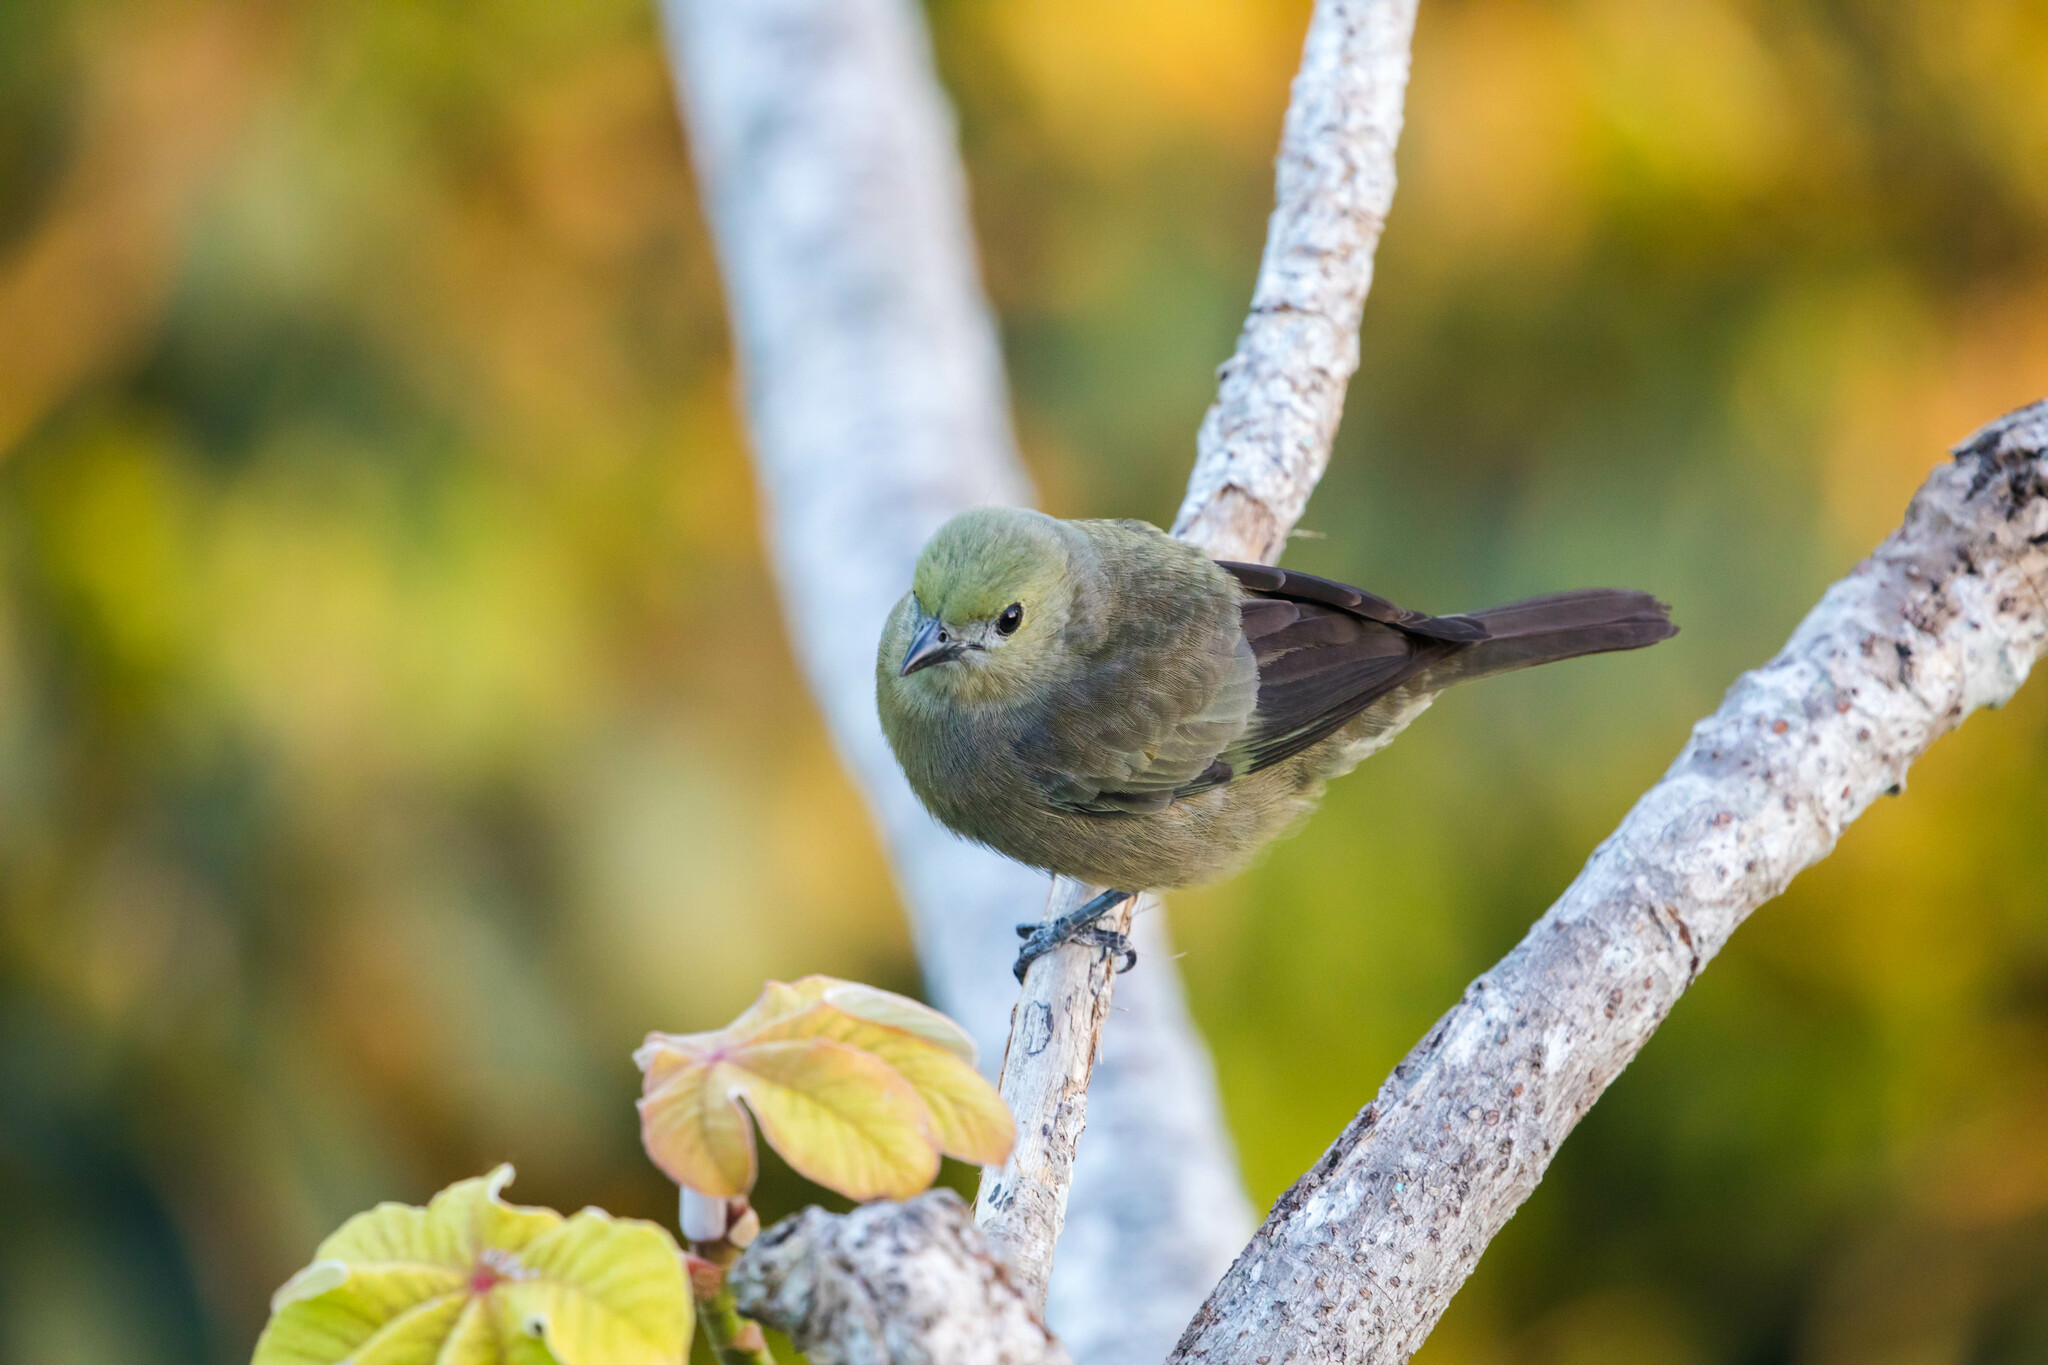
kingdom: Animalia
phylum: Chordata
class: Aves
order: Passeriformes
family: Thraupidae
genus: Thraupis
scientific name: Thraupis palmarum
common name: Palm tanager
